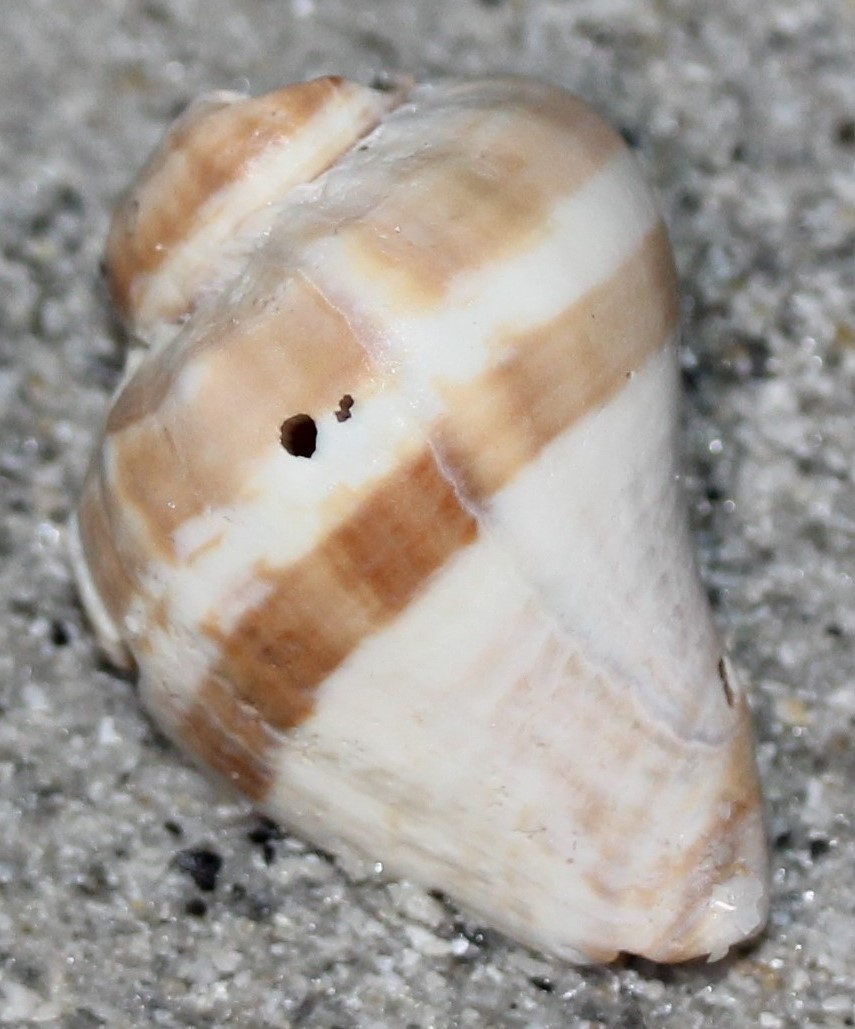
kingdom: Animalia
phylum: Mollusca
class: Gastropoda
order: Neogastropoda
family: Melongenidae
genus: Melongena
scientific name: Melongena corona
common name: American crown conch
